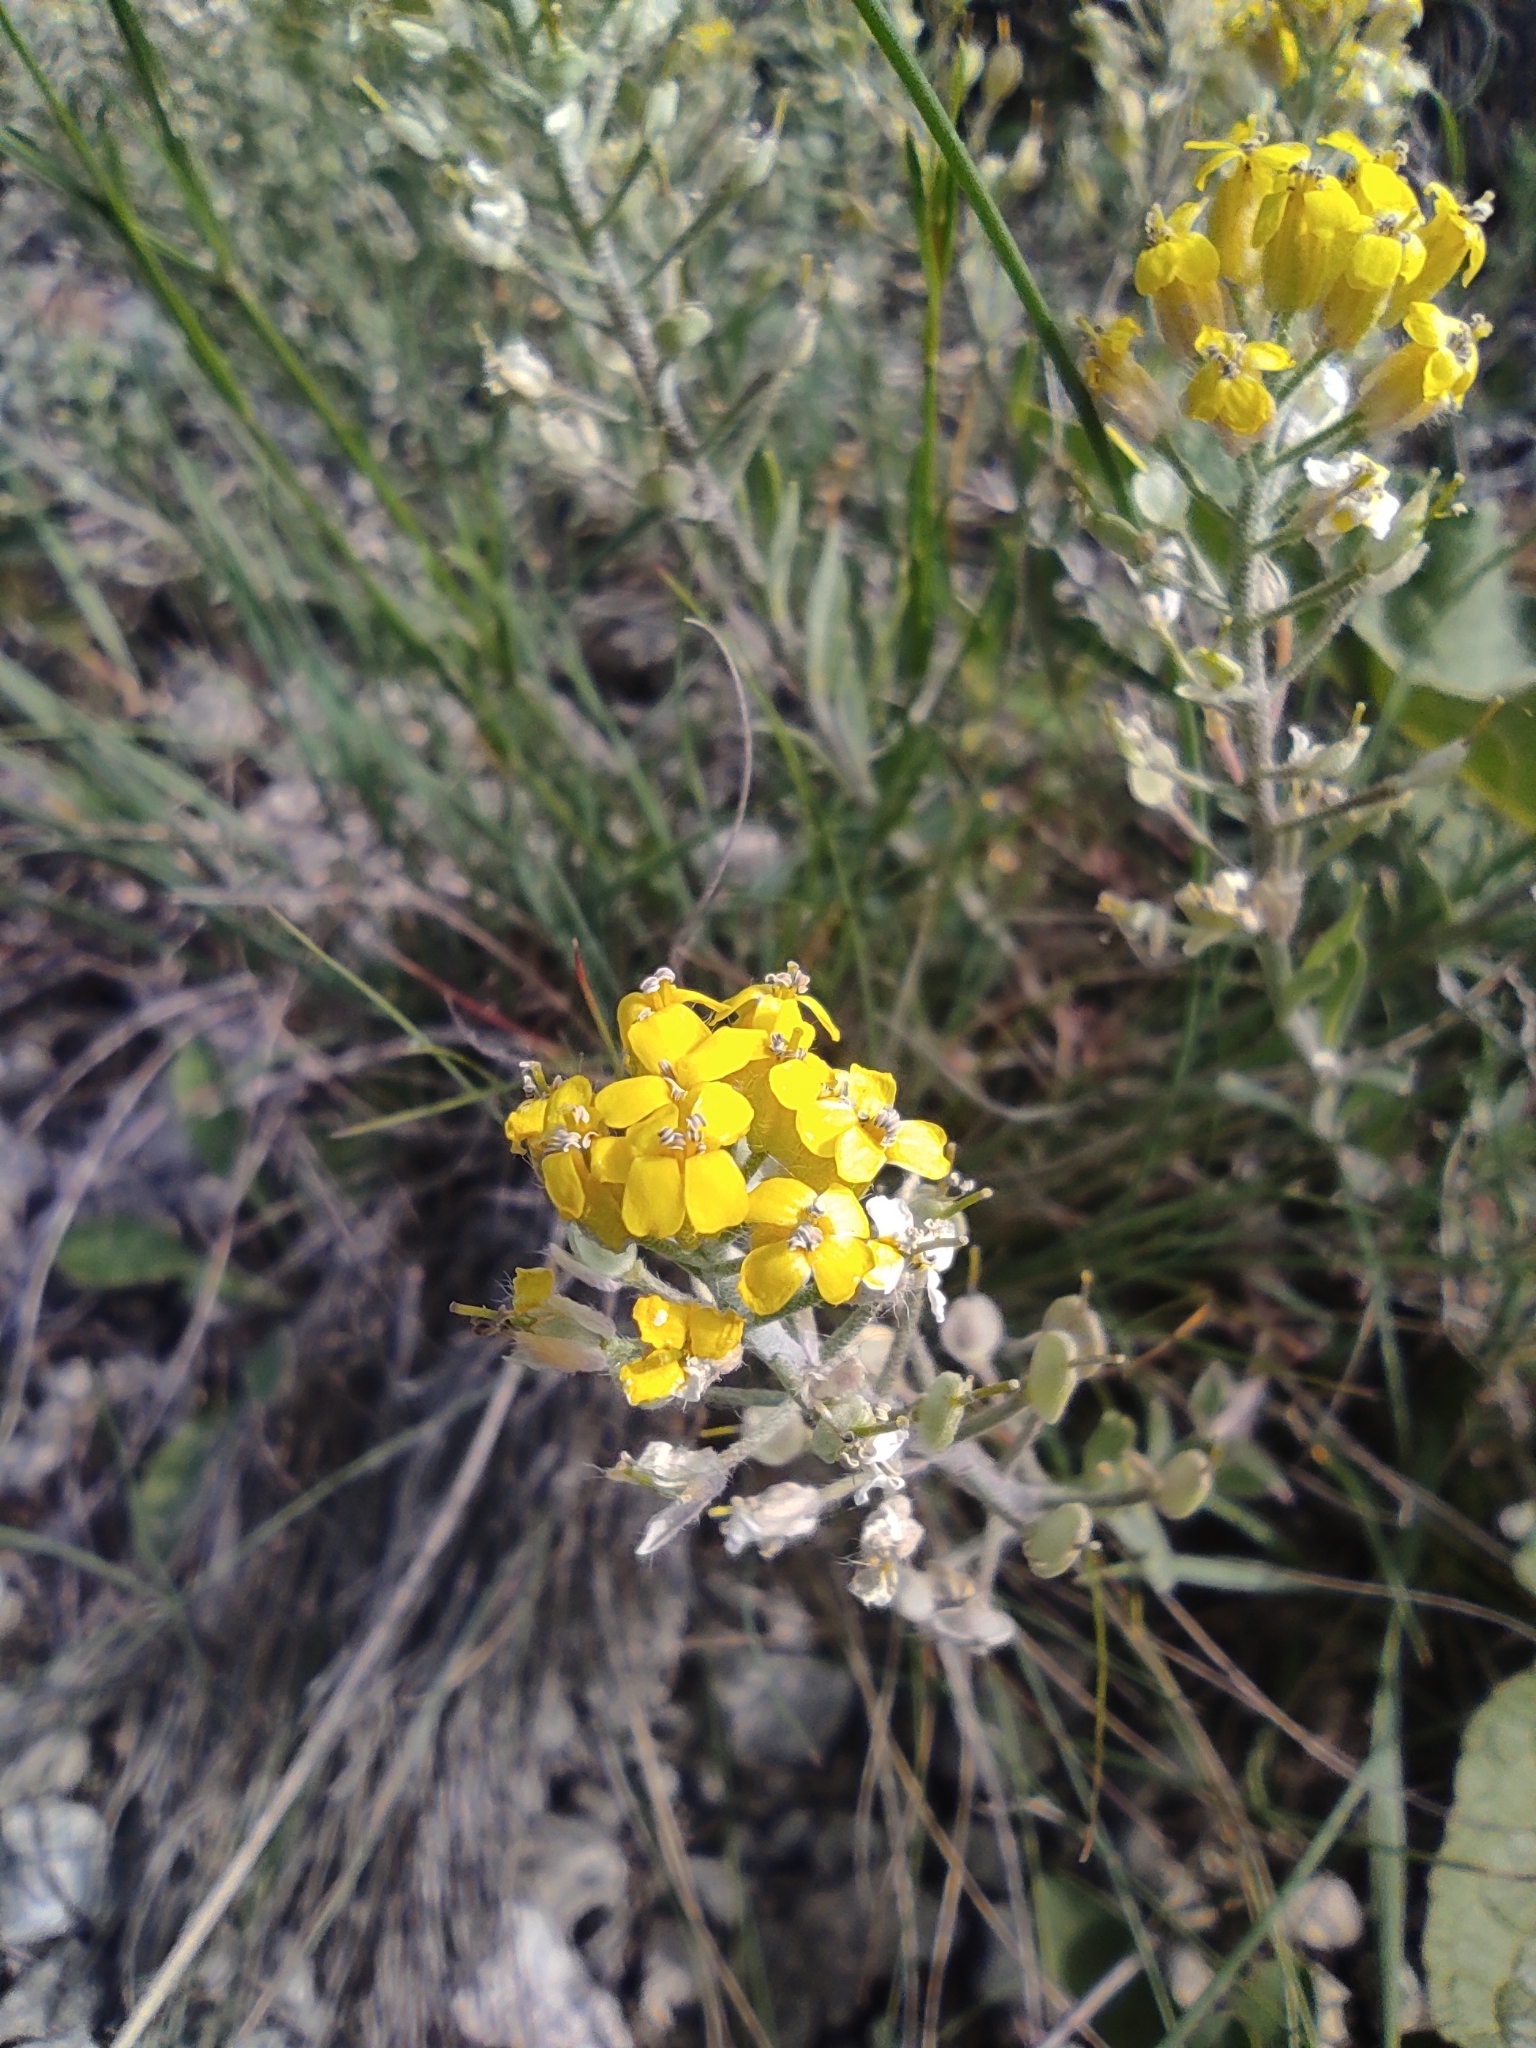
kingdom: Plantae
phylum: Tracheophyta
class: Magnoliopsida
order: Brassicales
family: Brassicaceae
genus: Odontarrhena
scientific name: Odontarrhena tortuosa
